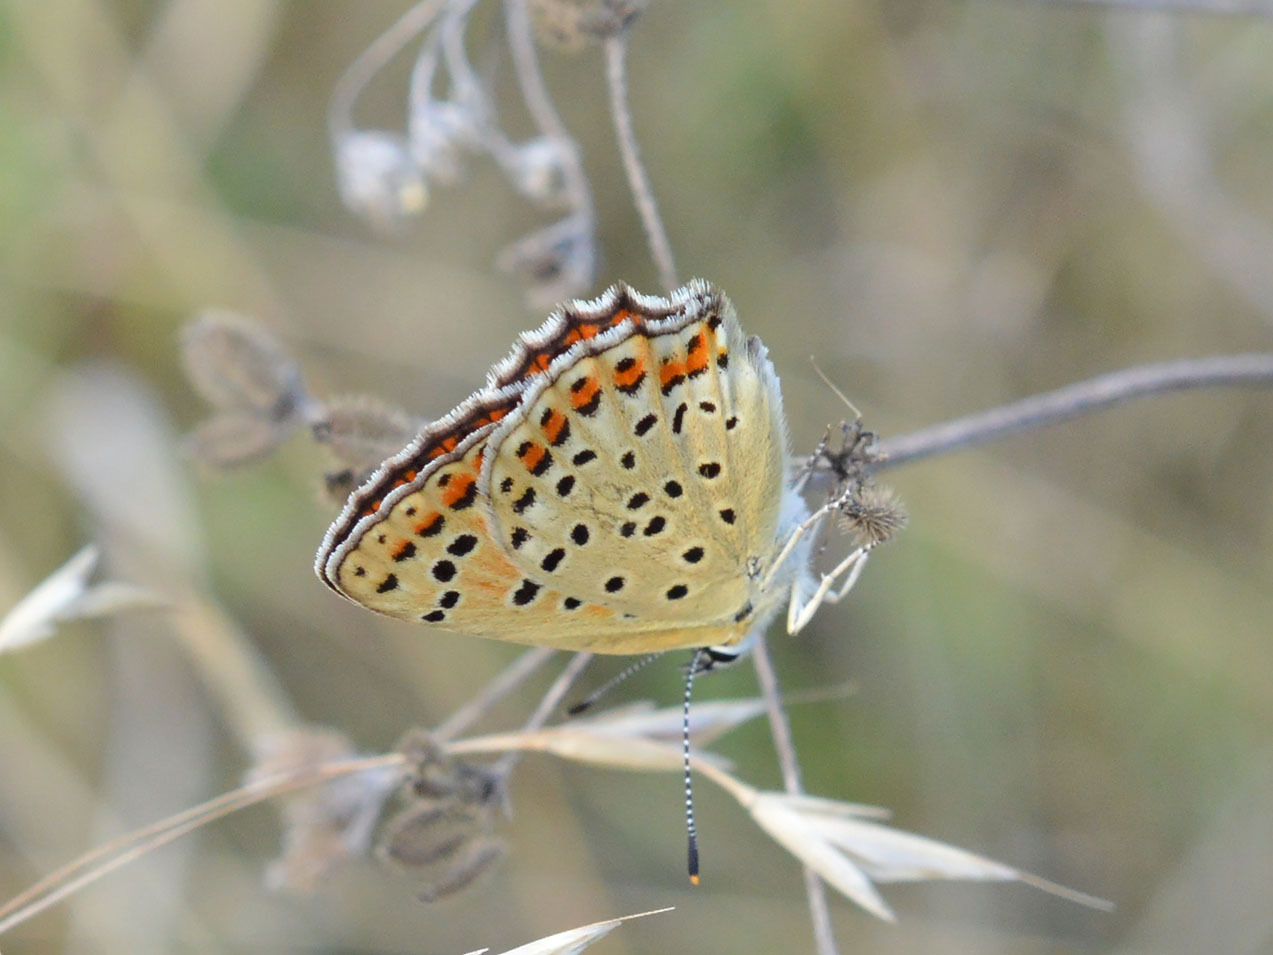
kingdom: Animalia
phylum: Arthropoda
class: Insecta
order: Lepidoptera
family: Lycaenidae
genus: Loweia
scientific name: Loweia tityrus
